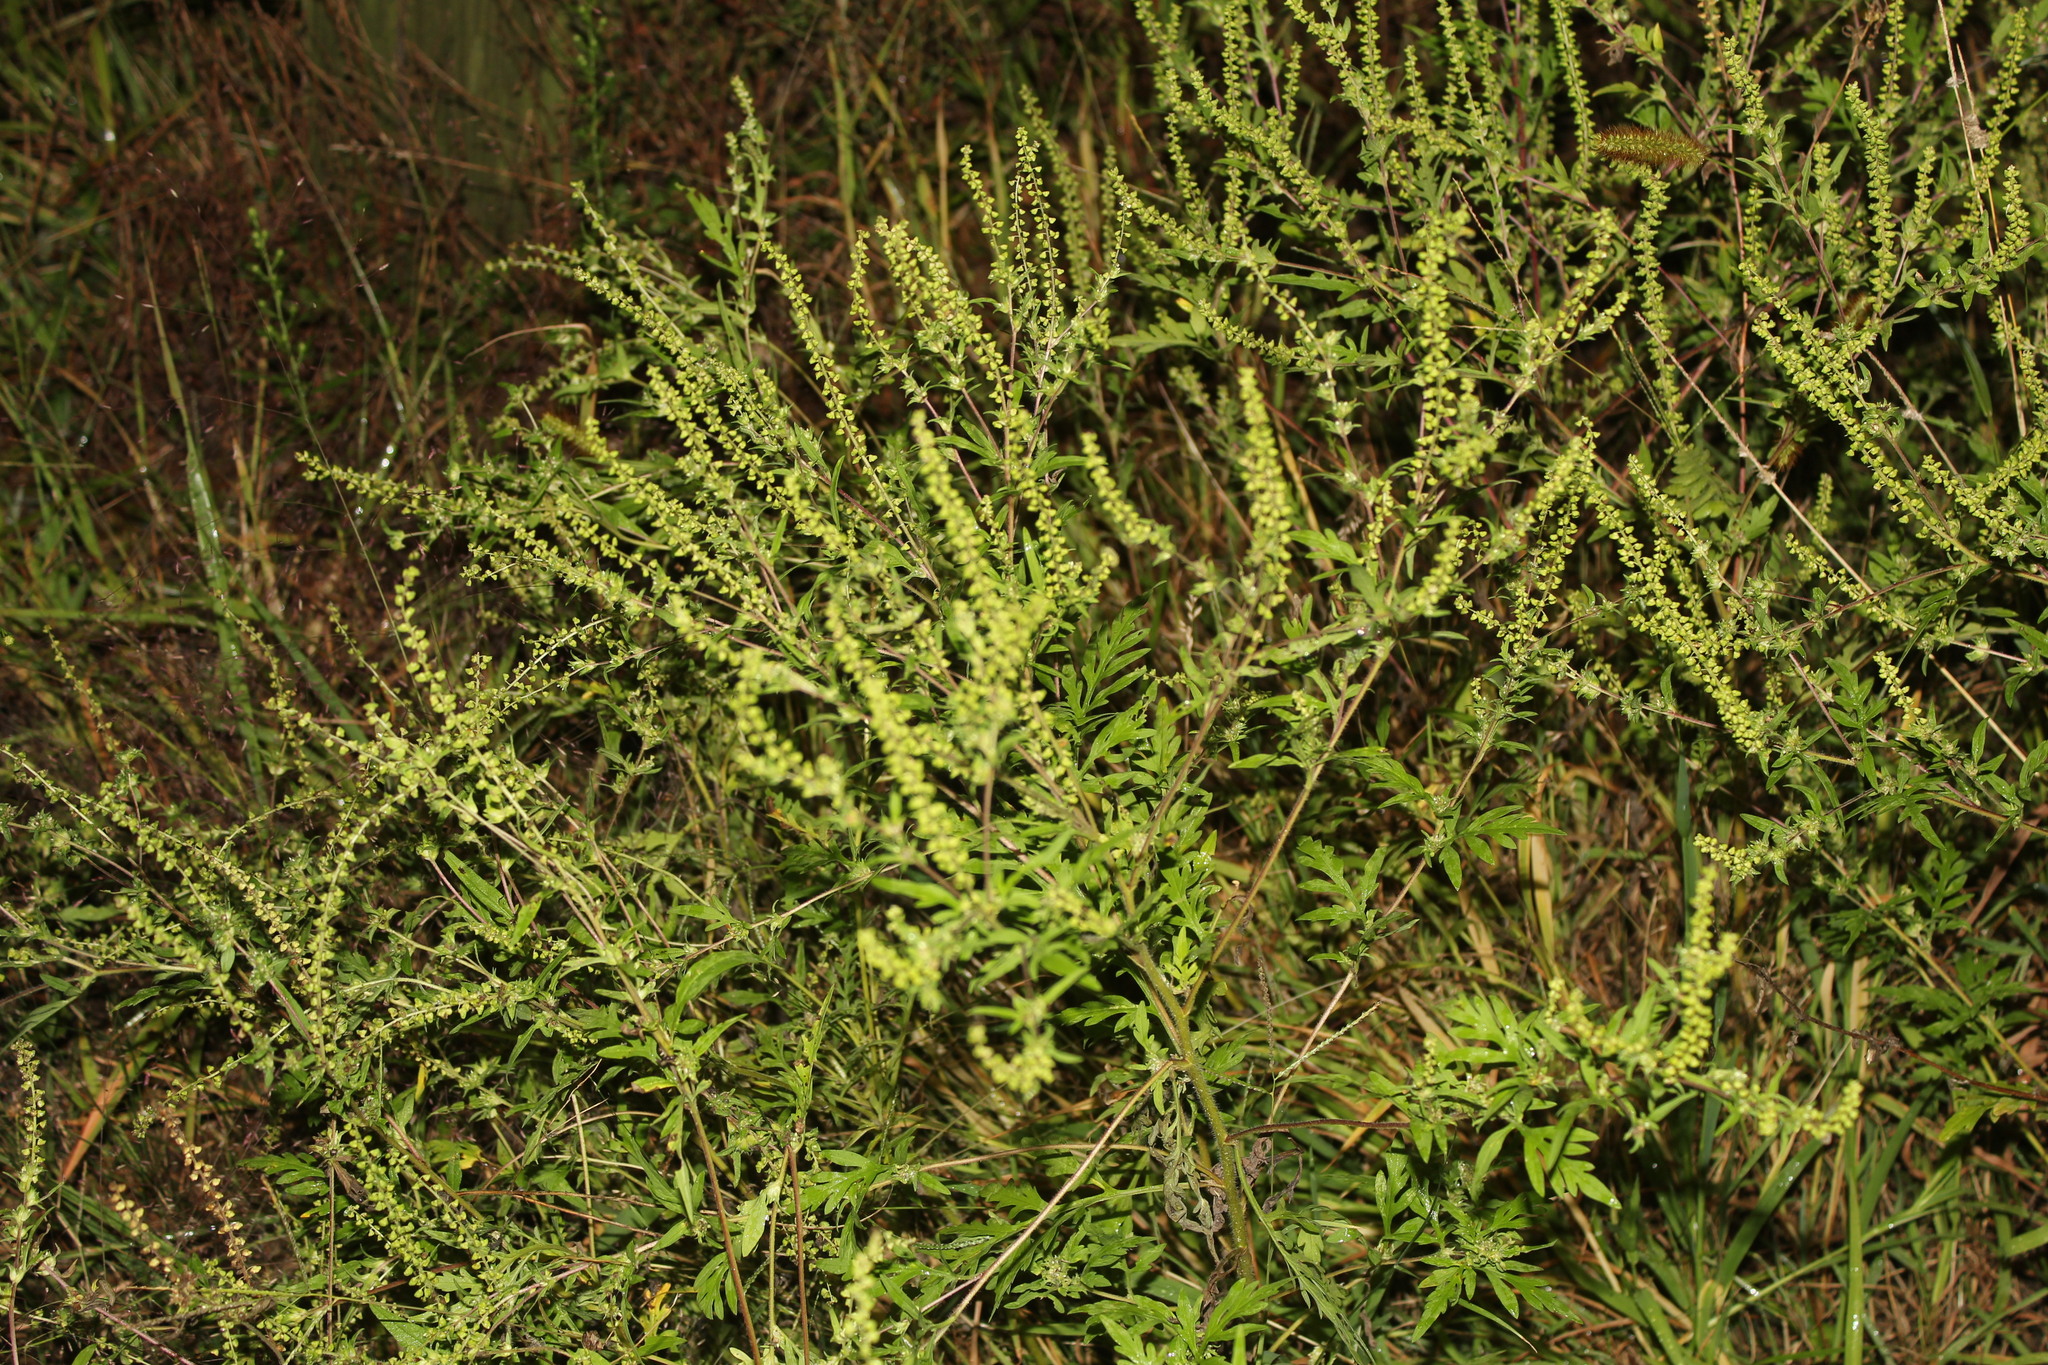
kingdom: Plantae
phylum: Tracheophyta
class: Magnoliopsida
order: Asterales
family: Asteraceae
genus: Ambrosia
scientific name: Ambrosia artemisiifolia
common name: Annual ragweed
